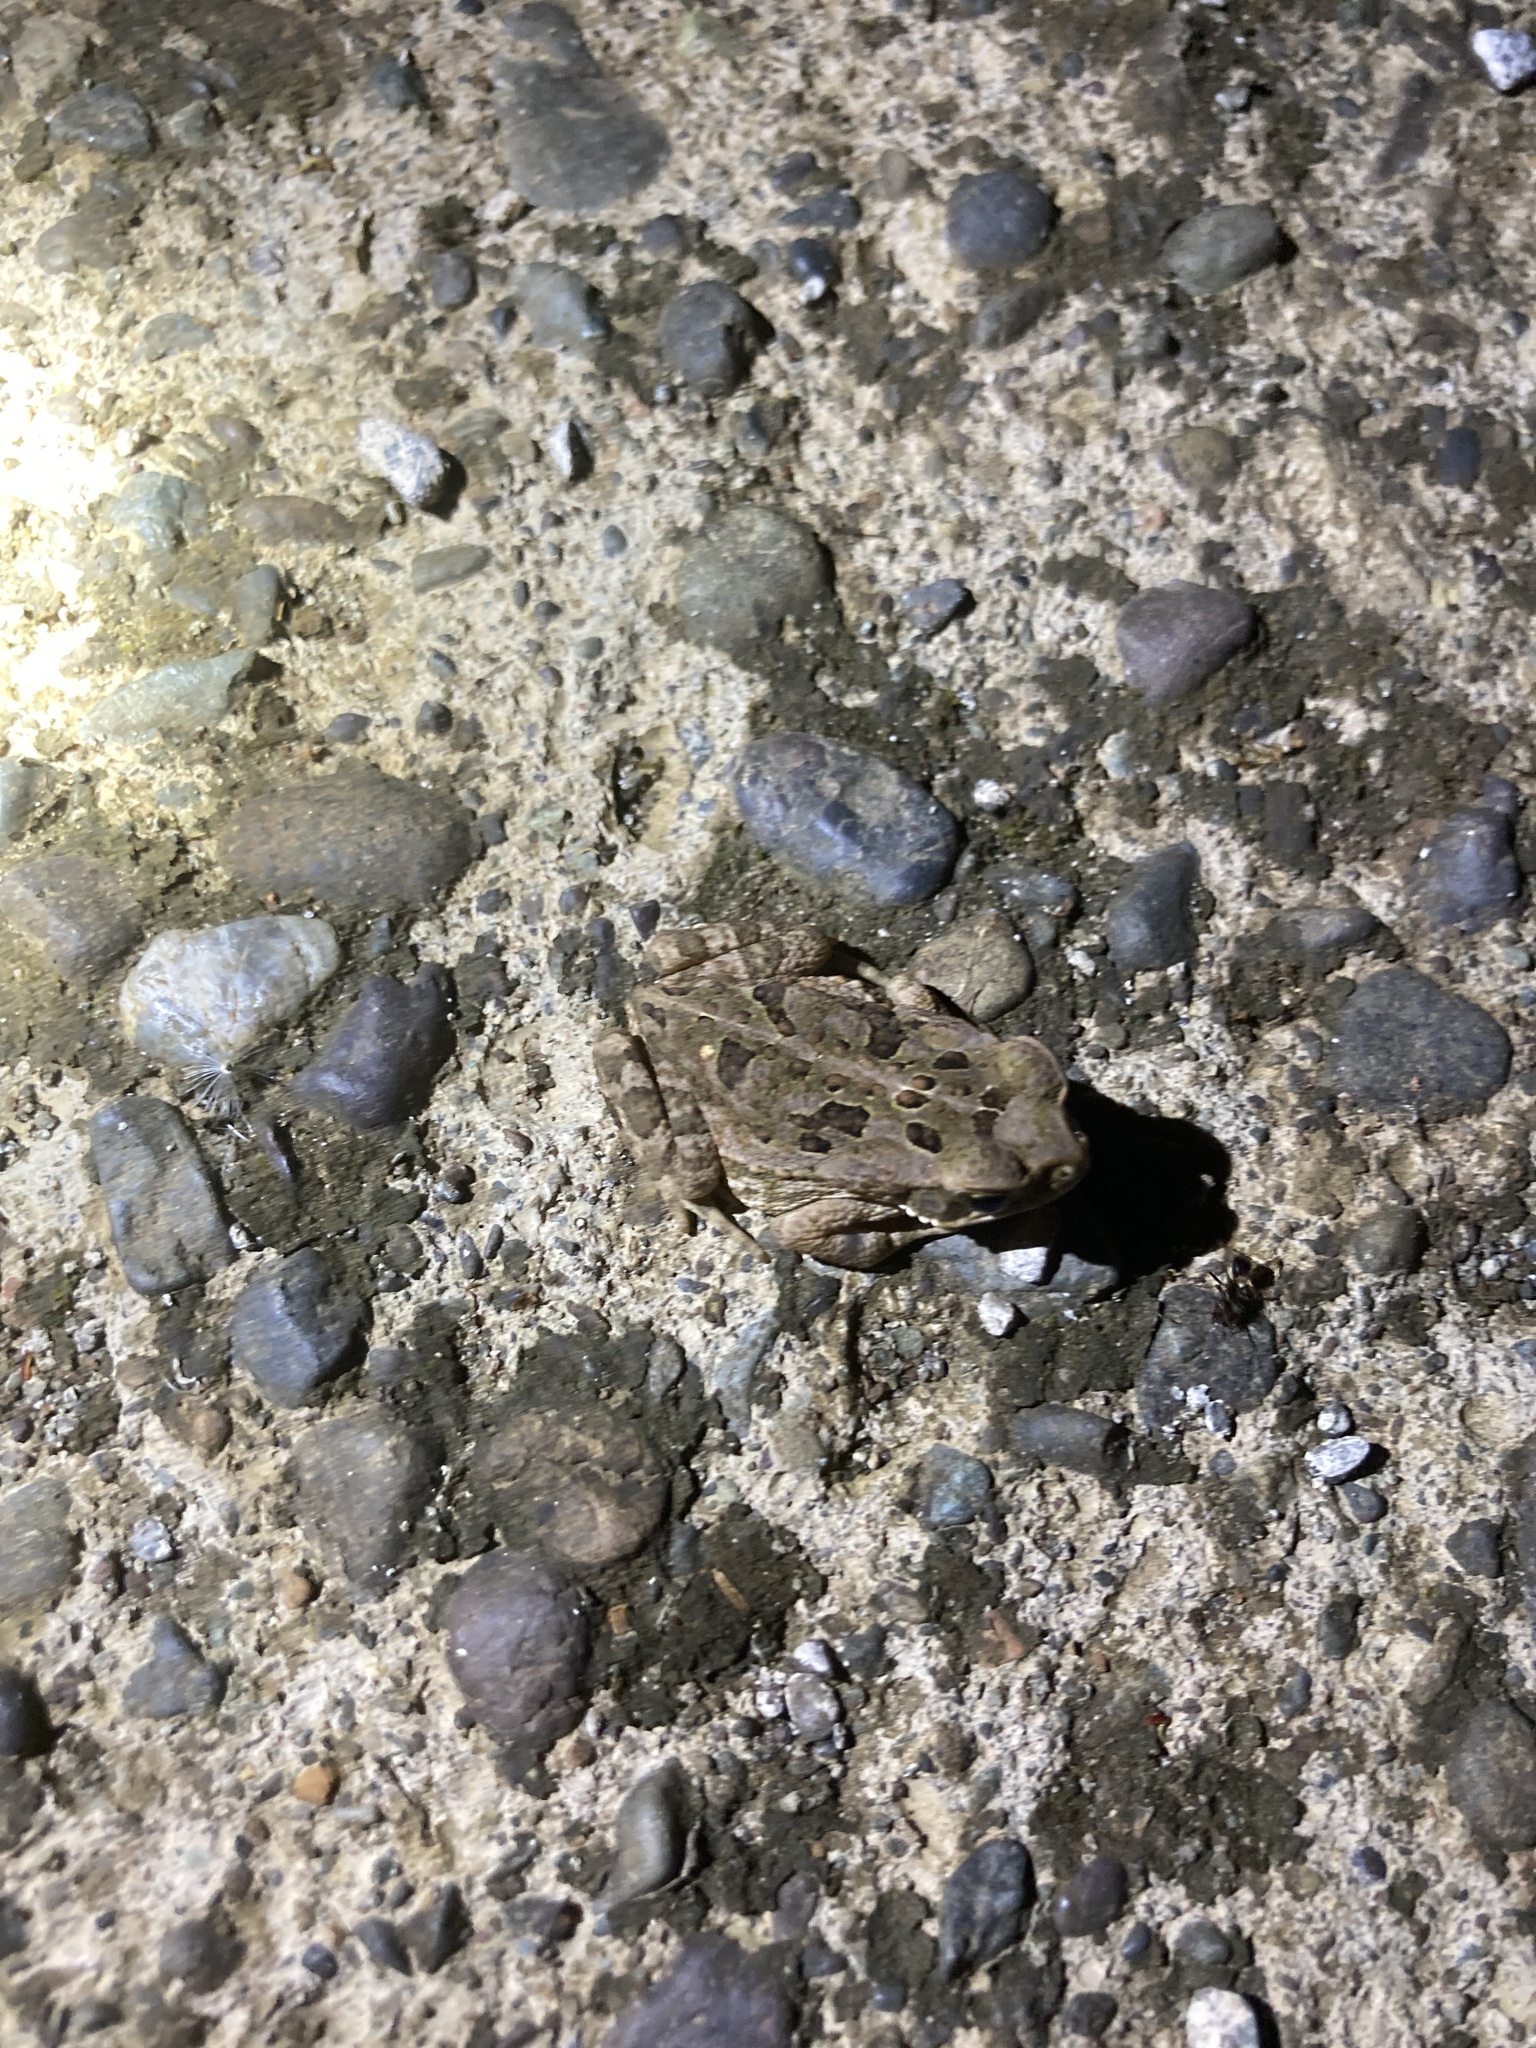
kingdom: Animalia
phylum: Chordata
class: Amphibia
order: Anura
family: Bufonidae
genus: Rhinella
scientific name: Rhinella horribilis
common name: Mesoamerican cane toad
